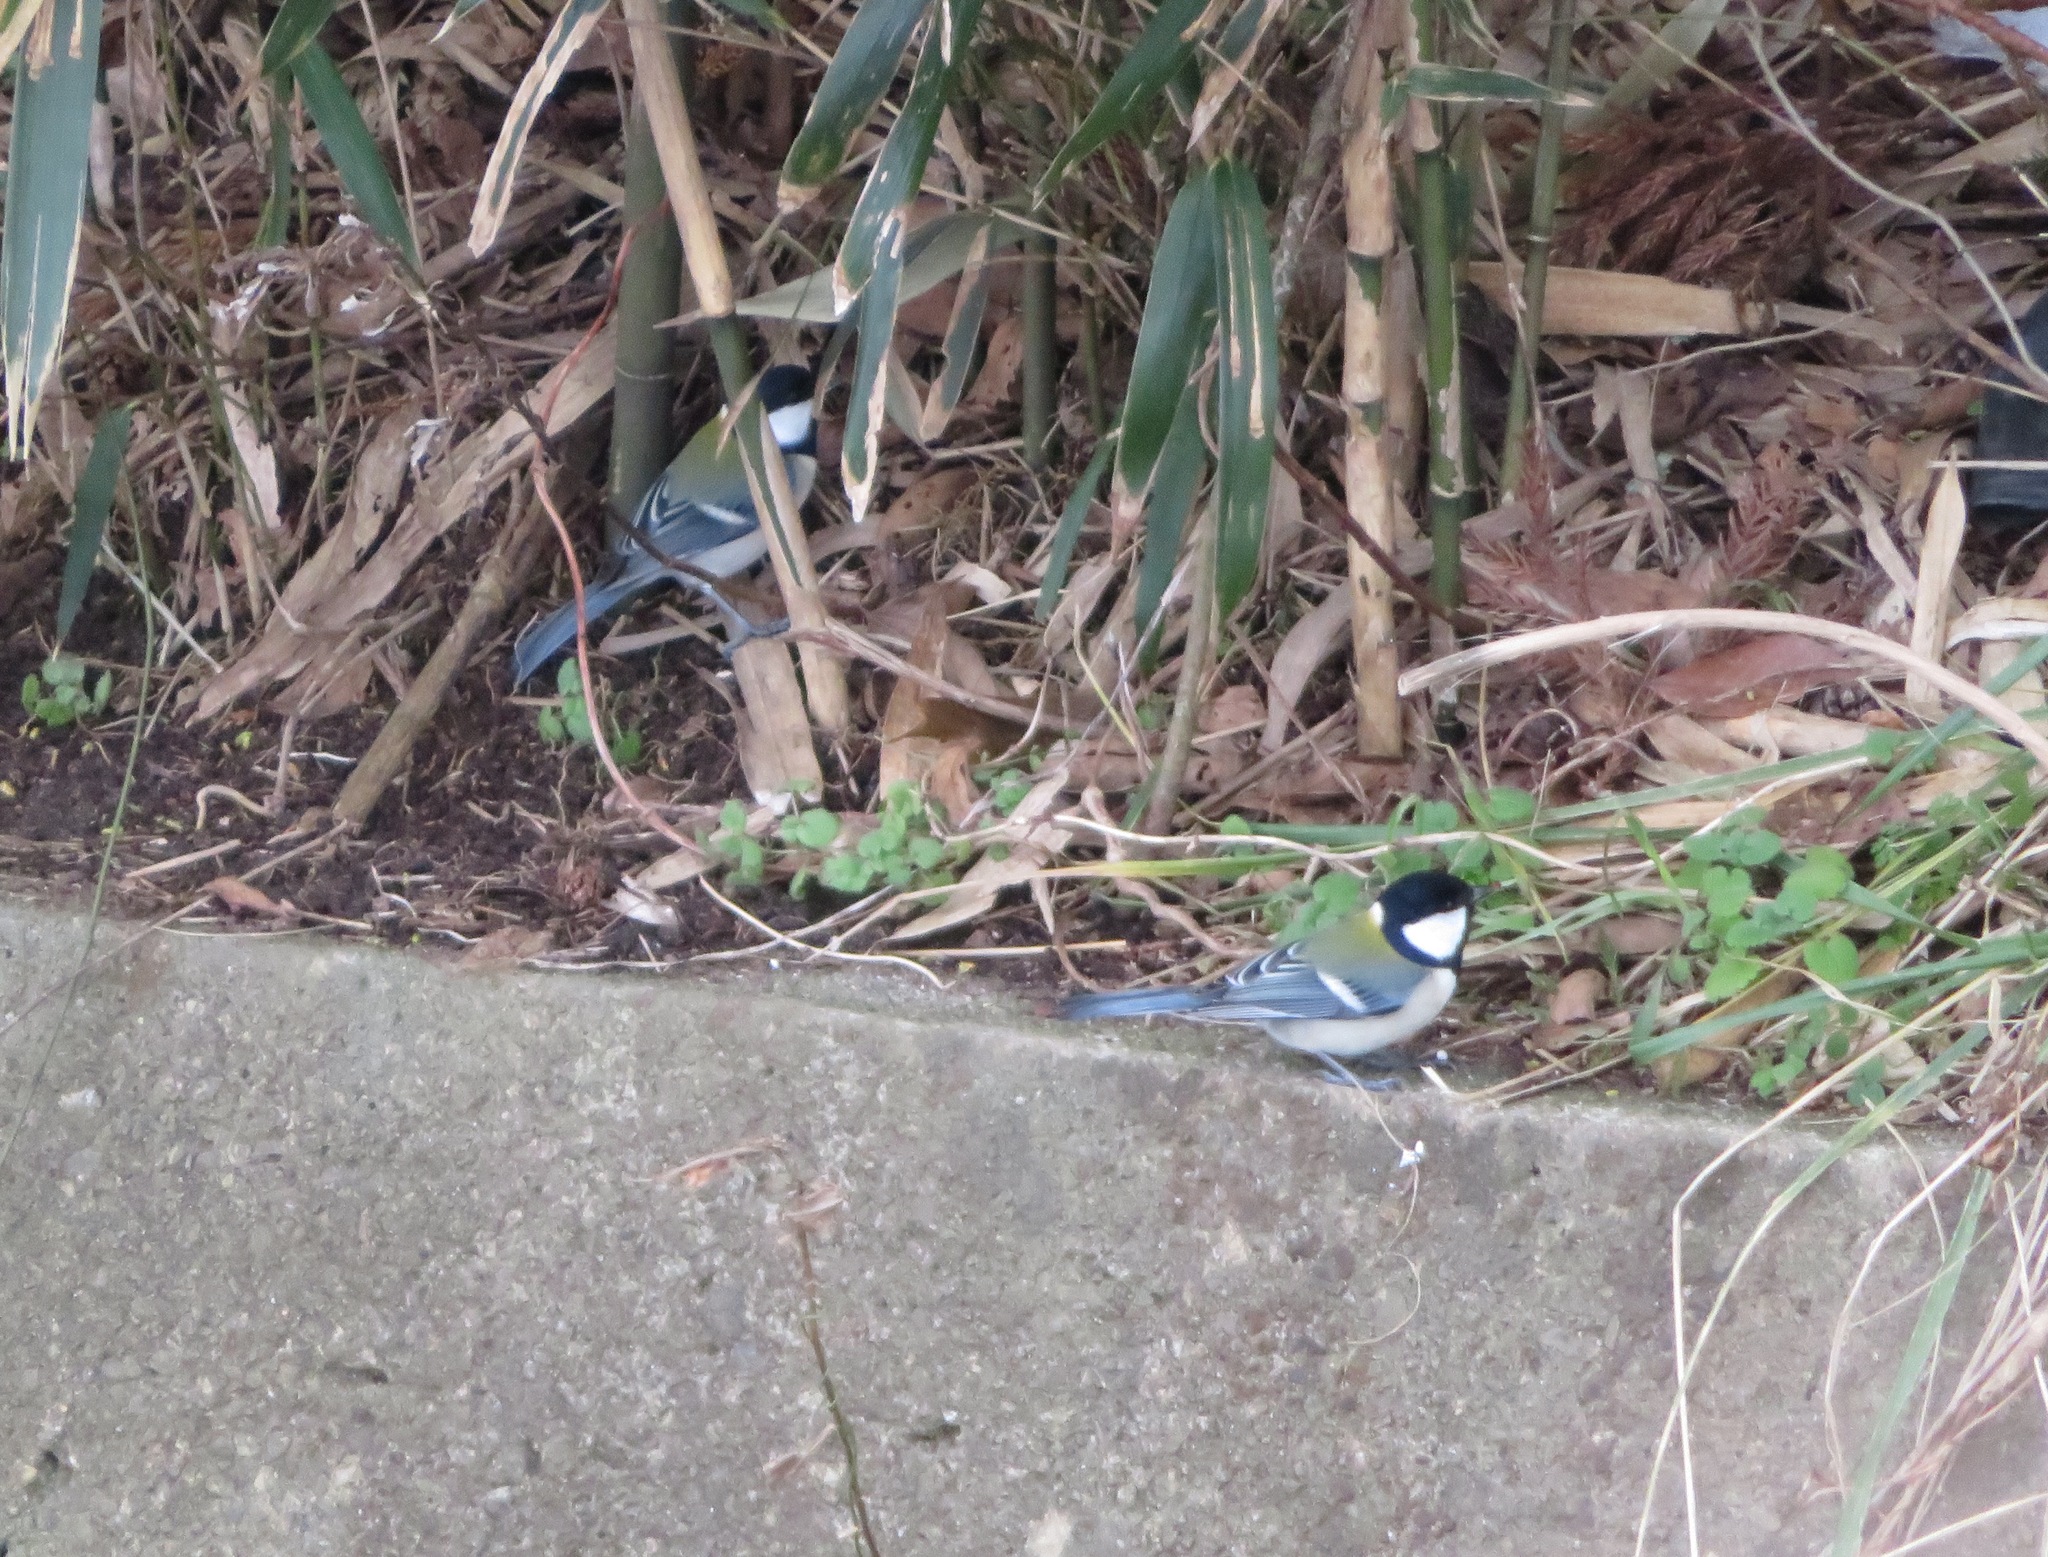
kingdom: Animalia
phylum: Chordata
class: Aves
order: Passeriformes
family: Paridae
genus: Parus
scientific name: Parus minor
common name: Japanese tit
